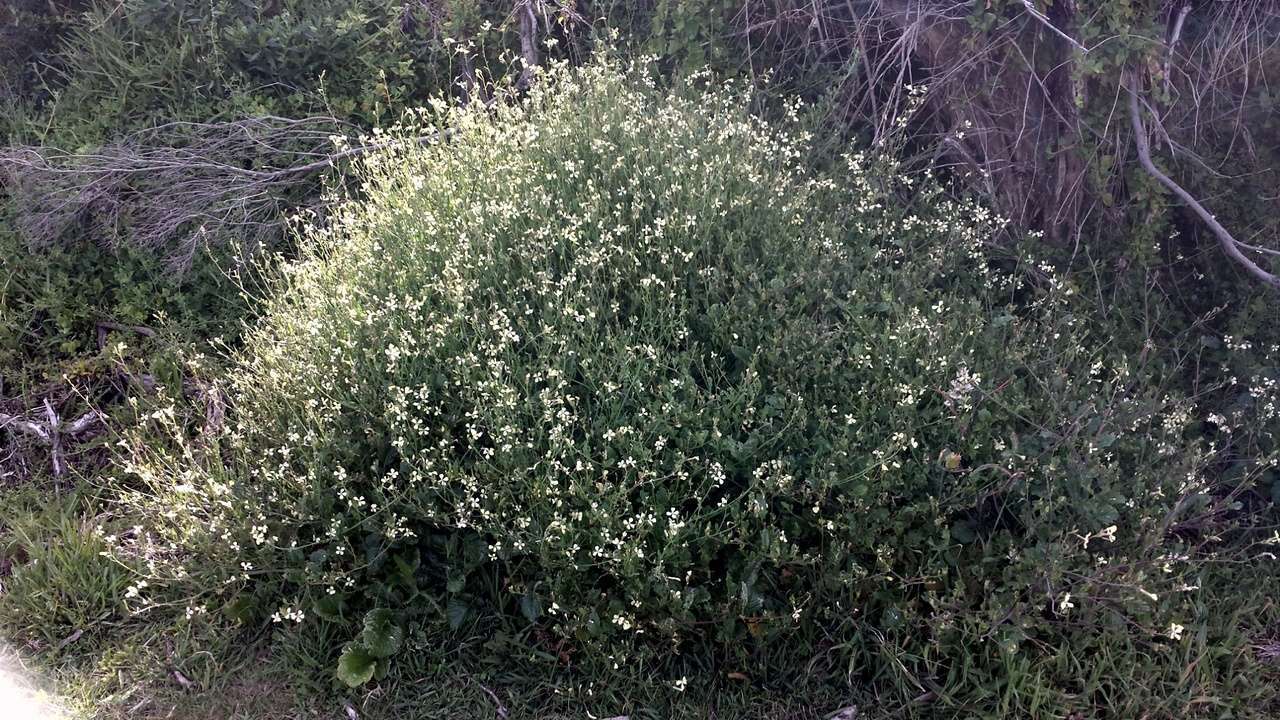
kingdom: Plantae
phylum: Tracheophyta
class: Magnoliopsida
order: Brassicales
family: Brassicaceae
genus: Raphanus
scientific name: Raphanus raphanistrum
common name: Wild radish
